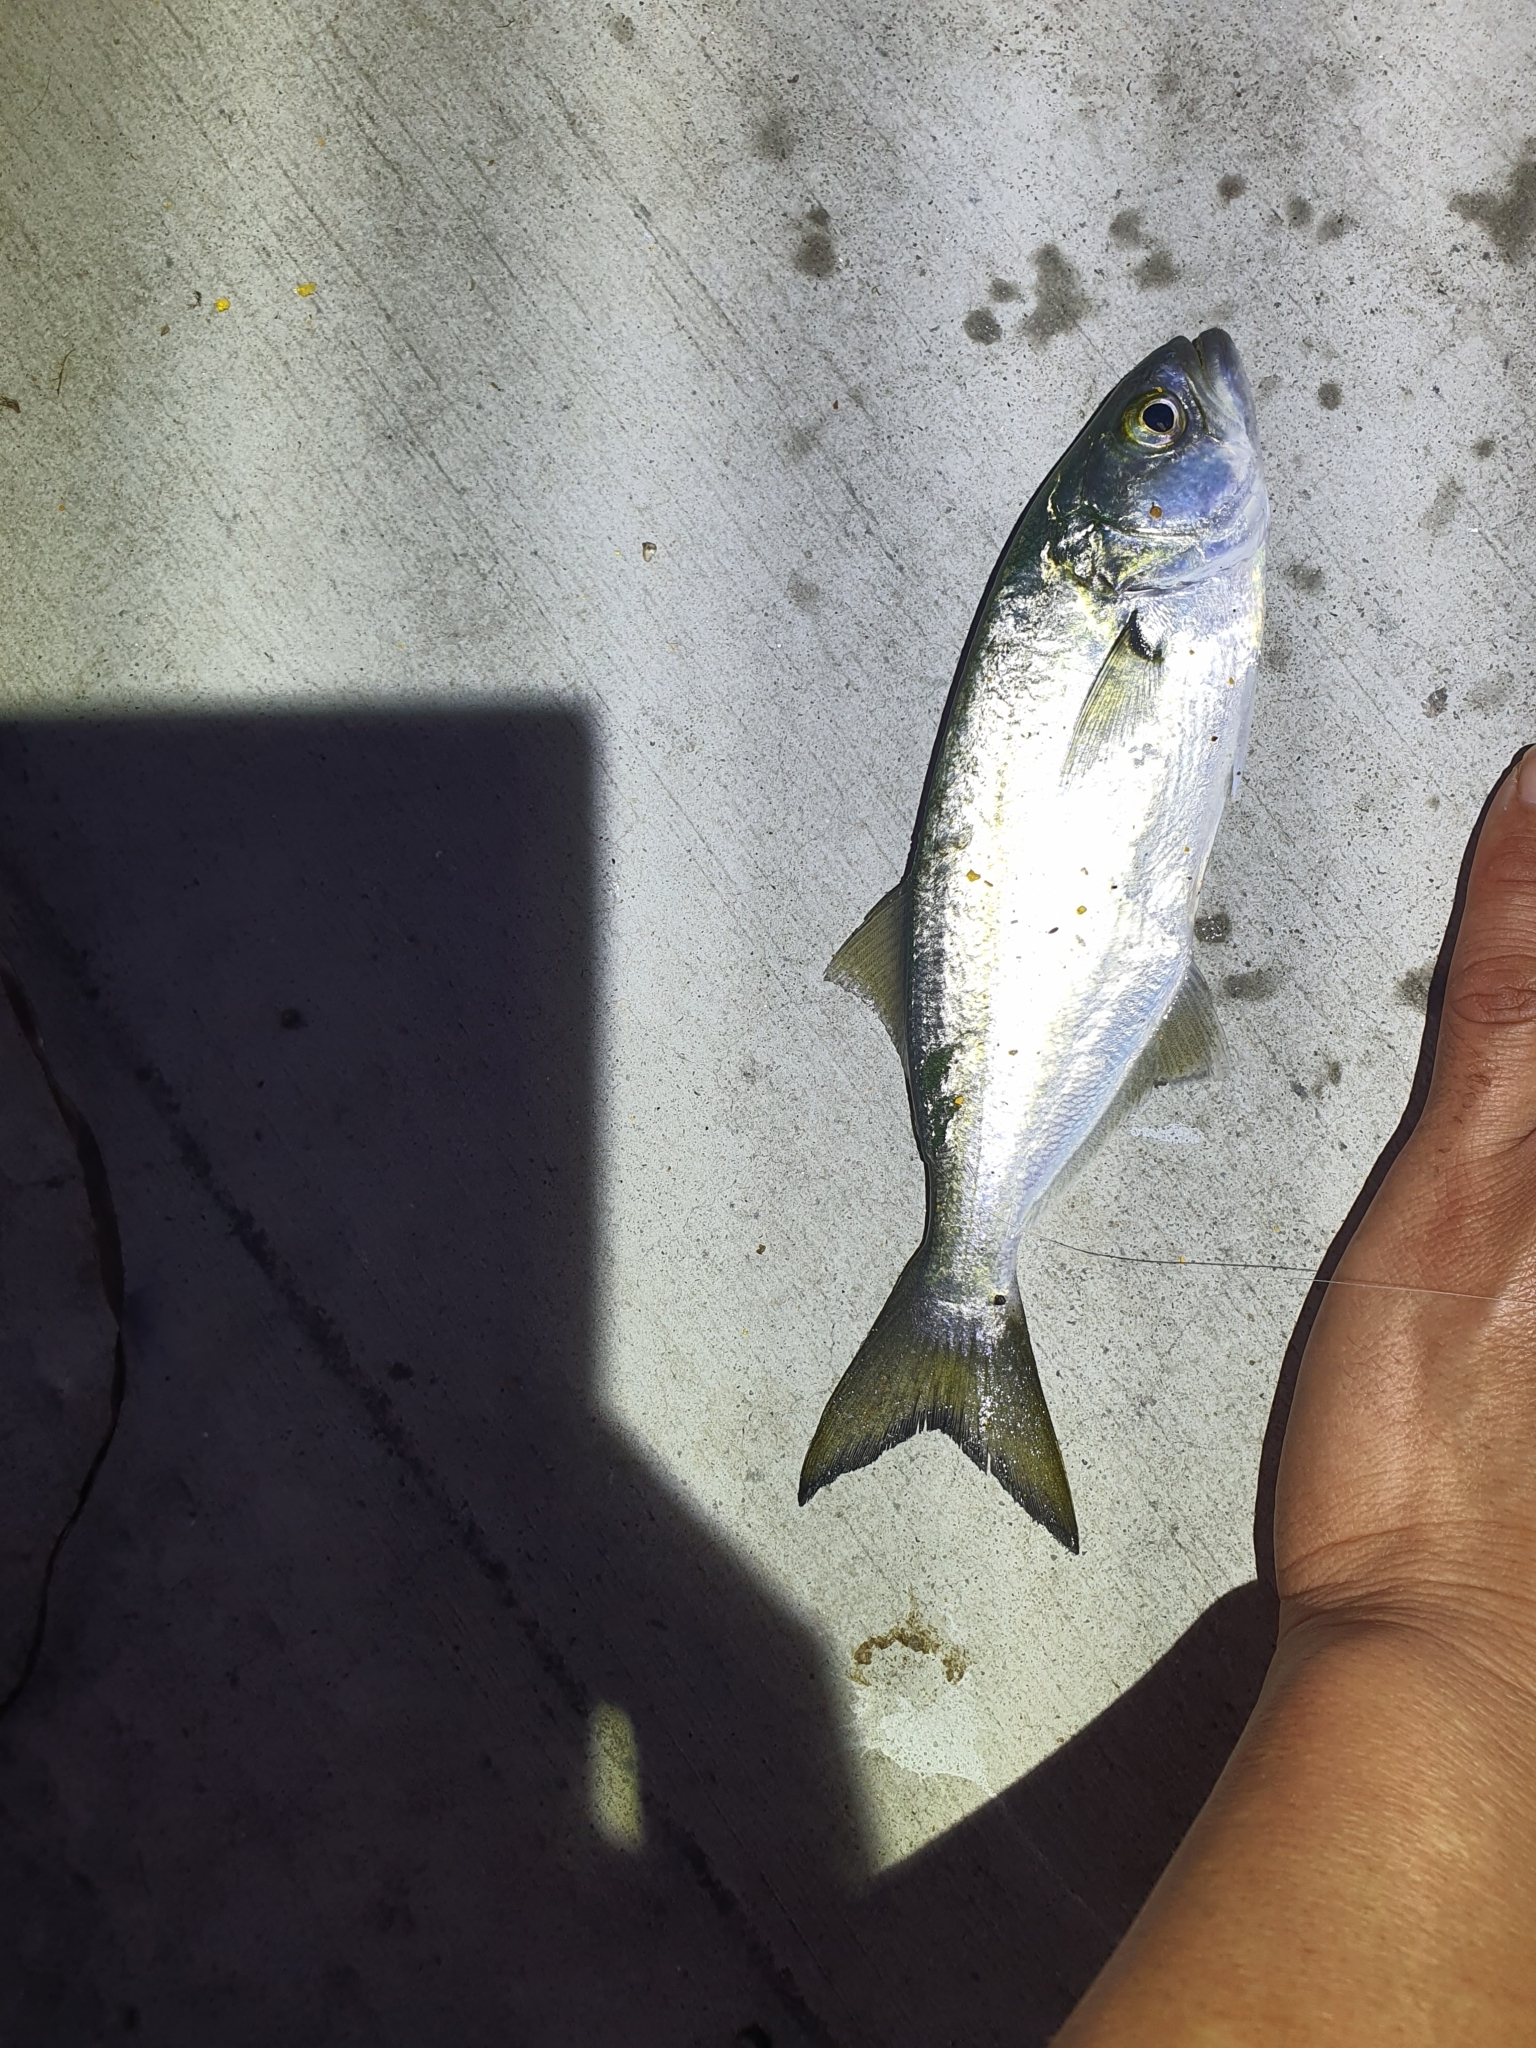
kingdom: Animalia
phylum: Chordata
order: Perciformes
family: Pomatomidae
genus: Pomatomus
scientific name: Pomatomus saltatrix
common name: Bluefish
